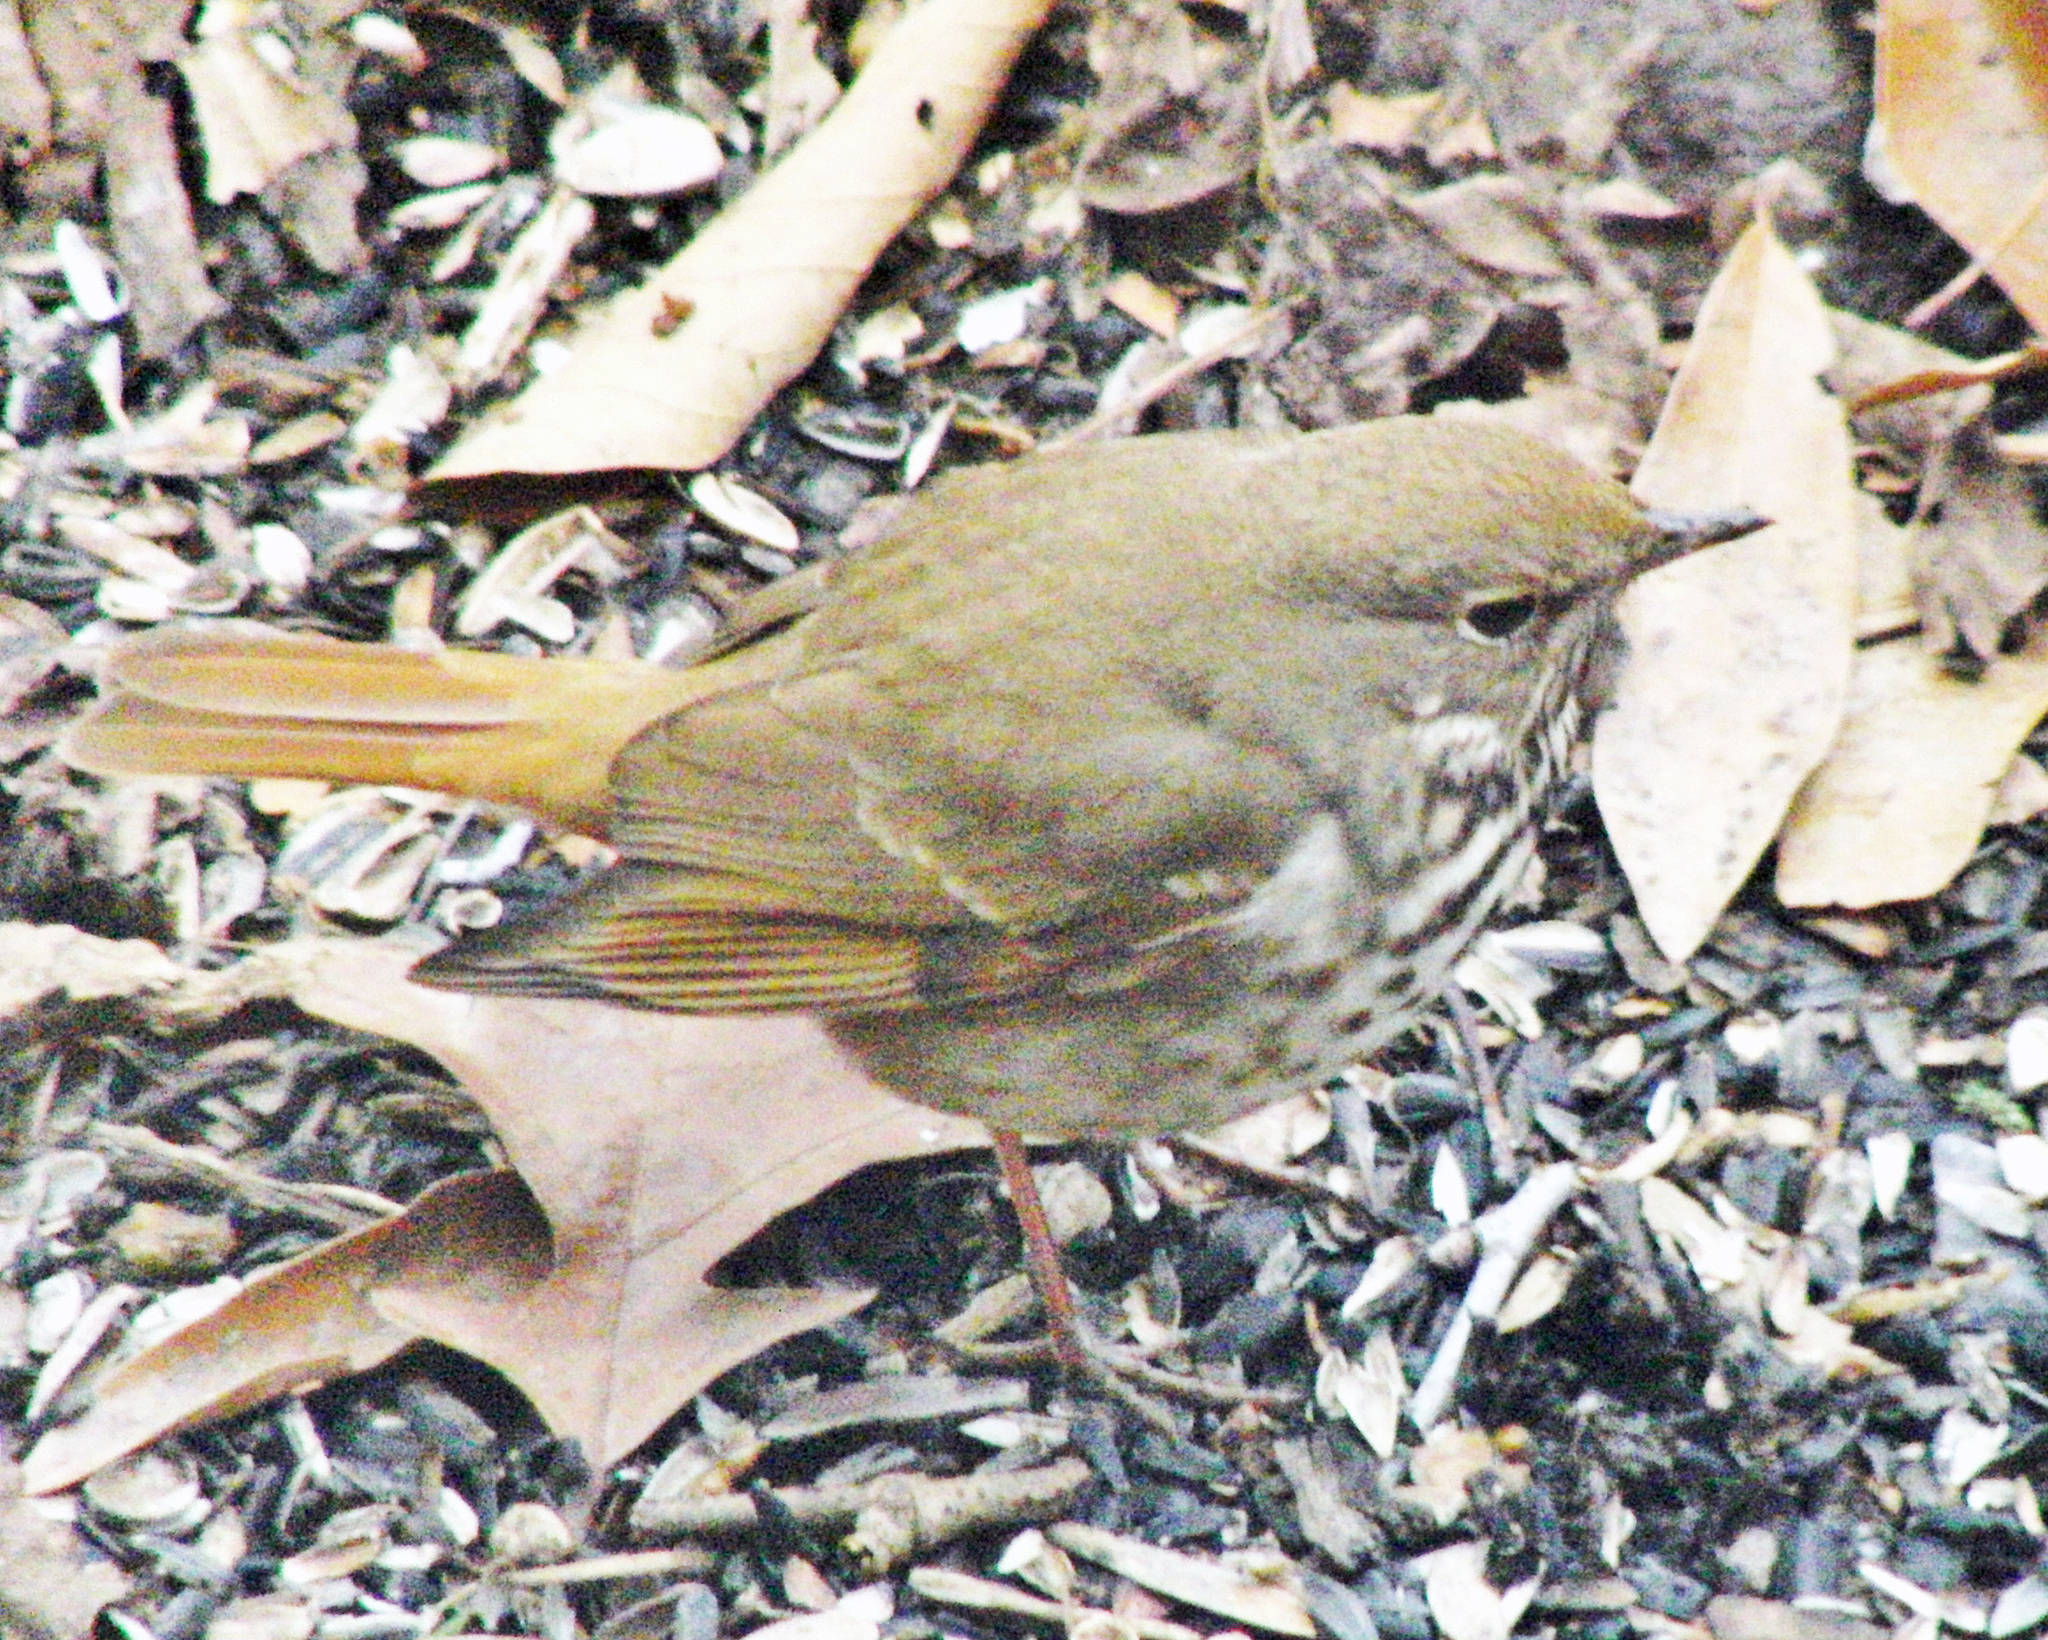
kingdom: Animalia
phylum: Chordata
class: Aves
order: Passeriformes
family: Turdidae
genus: Catharus
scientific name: Catharus guttatus
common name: Hermit thrush
